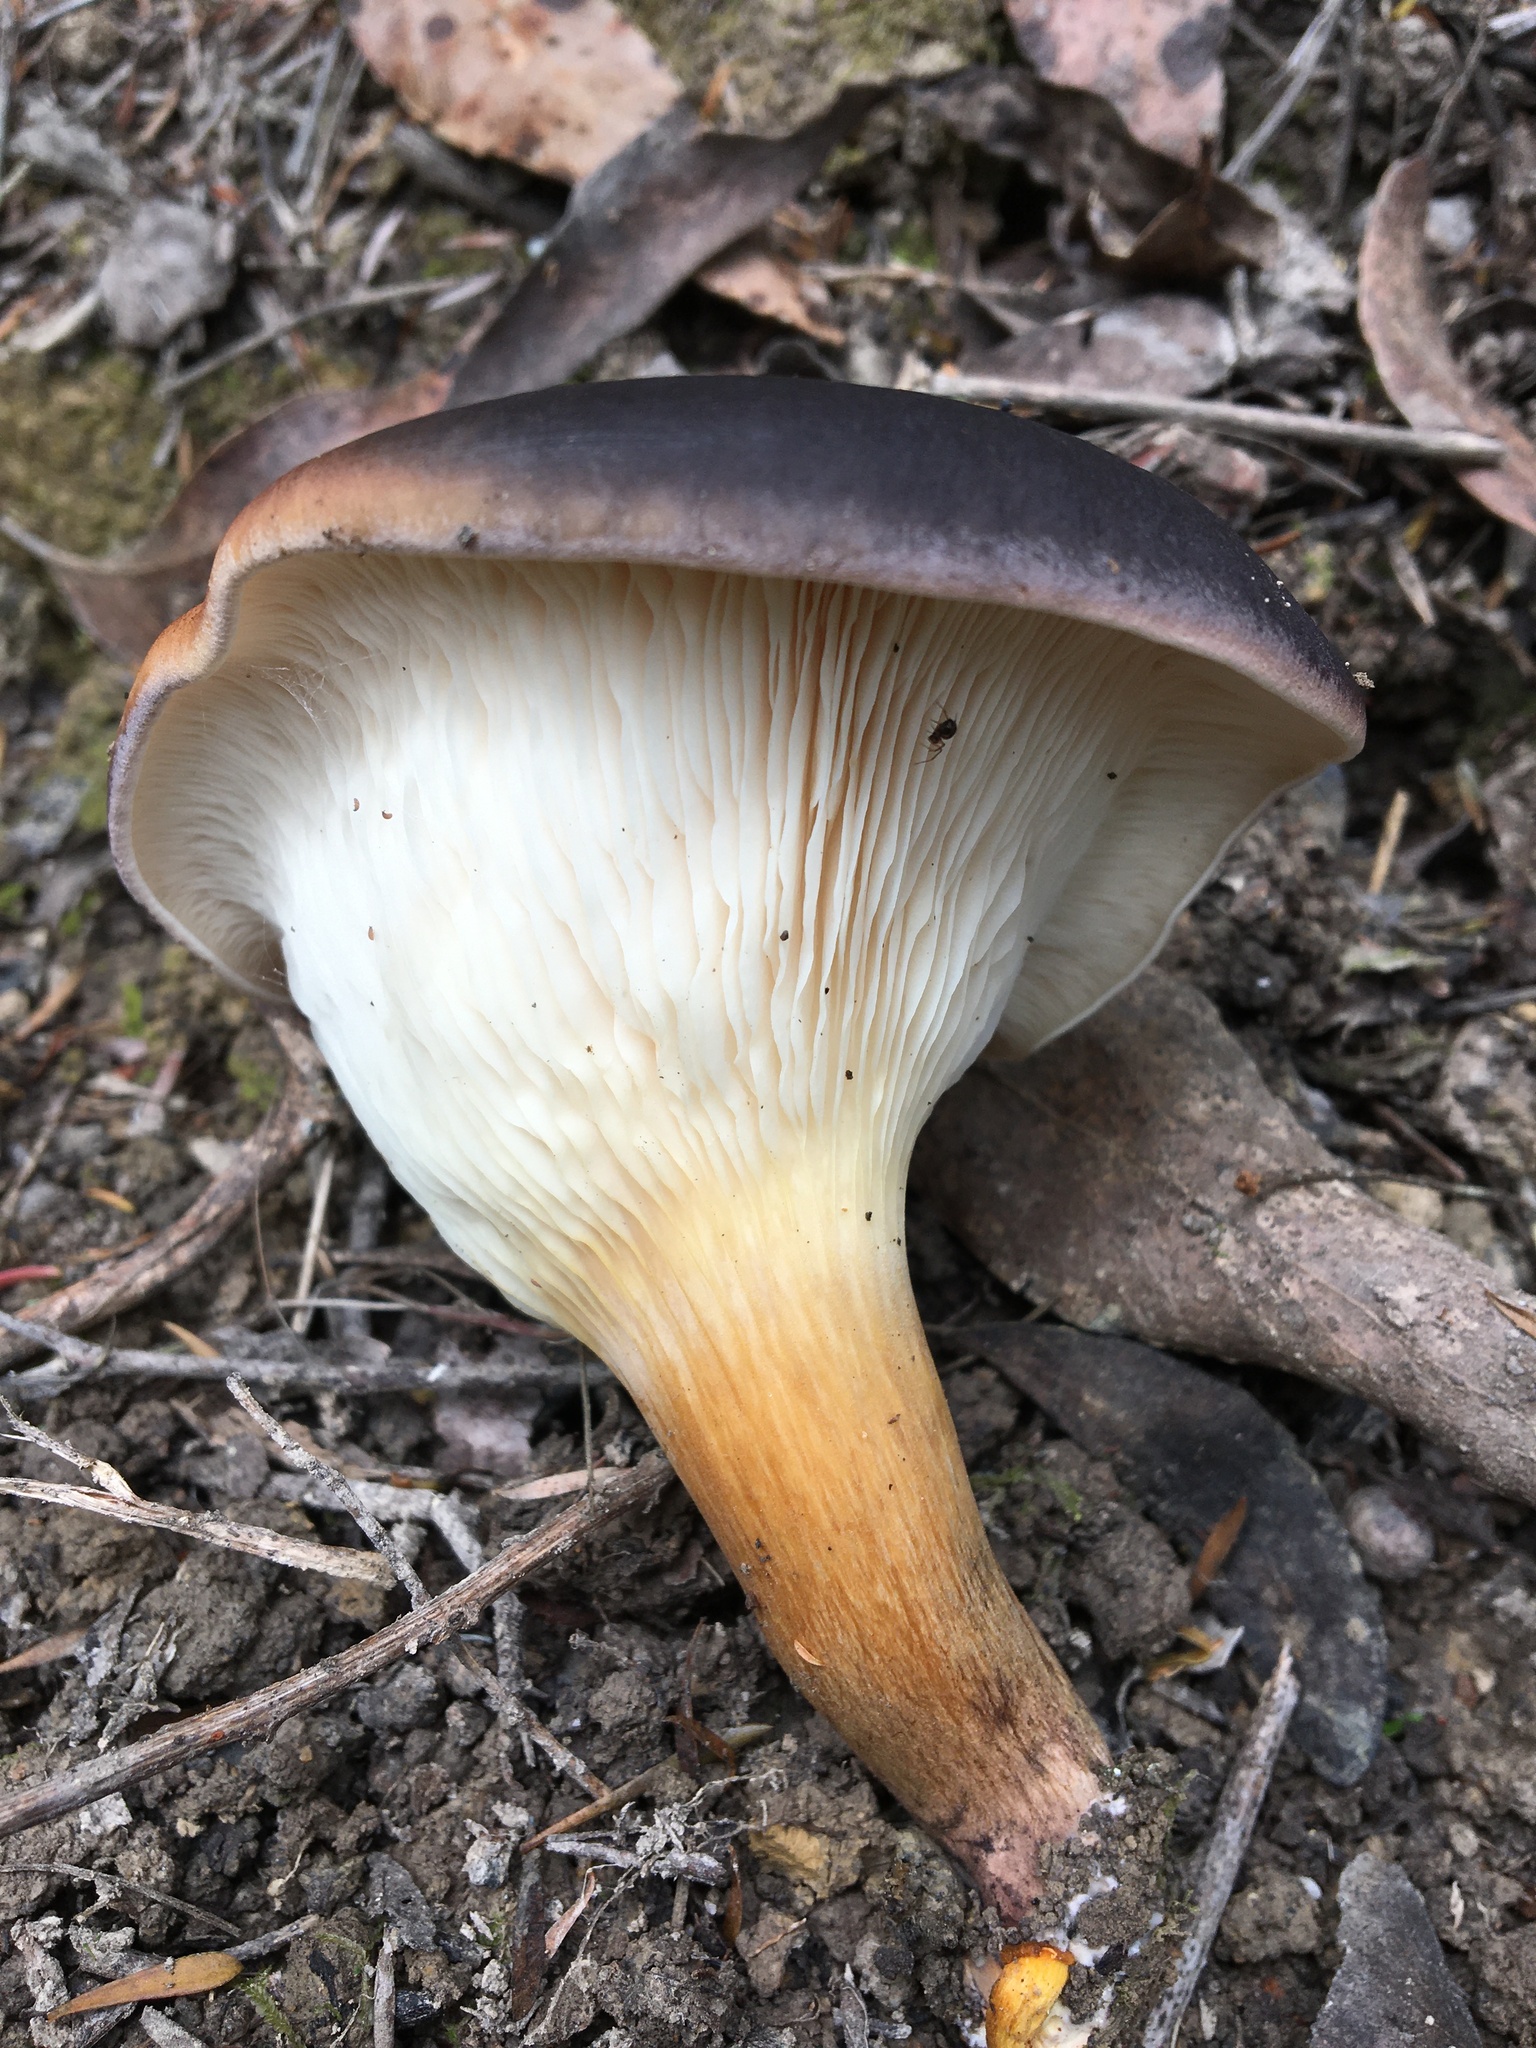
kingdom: Fungi
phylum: Basidiomycota
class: Agaricomycetes
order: Agaricales
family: Omphalotaceae
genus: Omphalotus
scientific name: Omphalotus nidiformis
